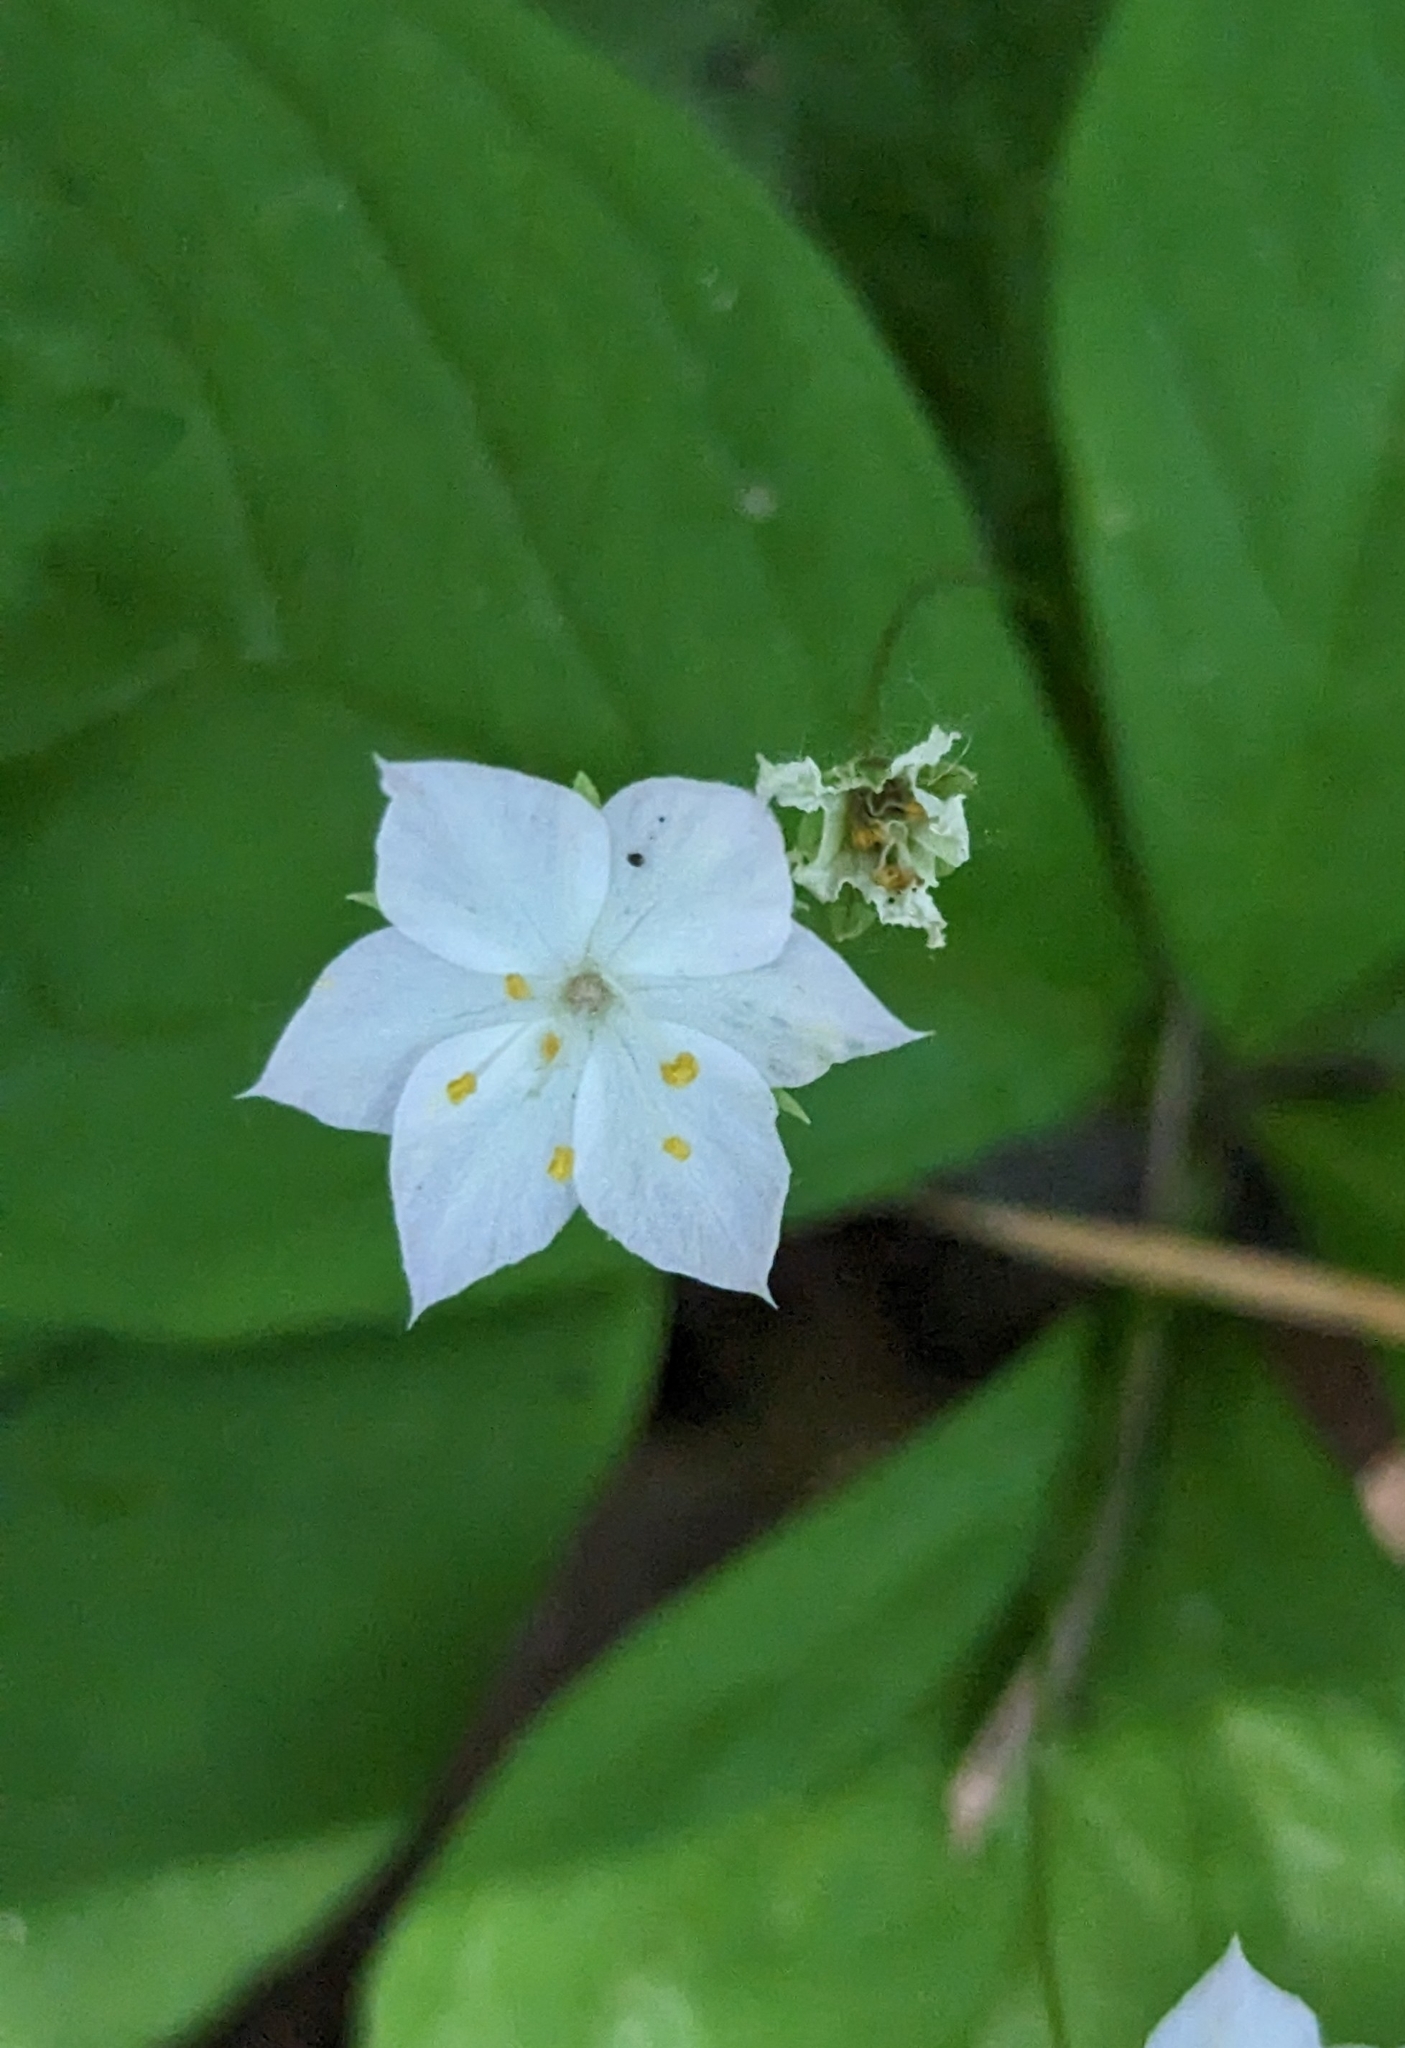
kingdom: Plantae
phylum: Tracheophyta
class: Magnoliopsida
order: Ericales
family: Primulaceae
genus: Lysimachia
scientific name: Lysimachia latifolia
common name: Pacific starflower
